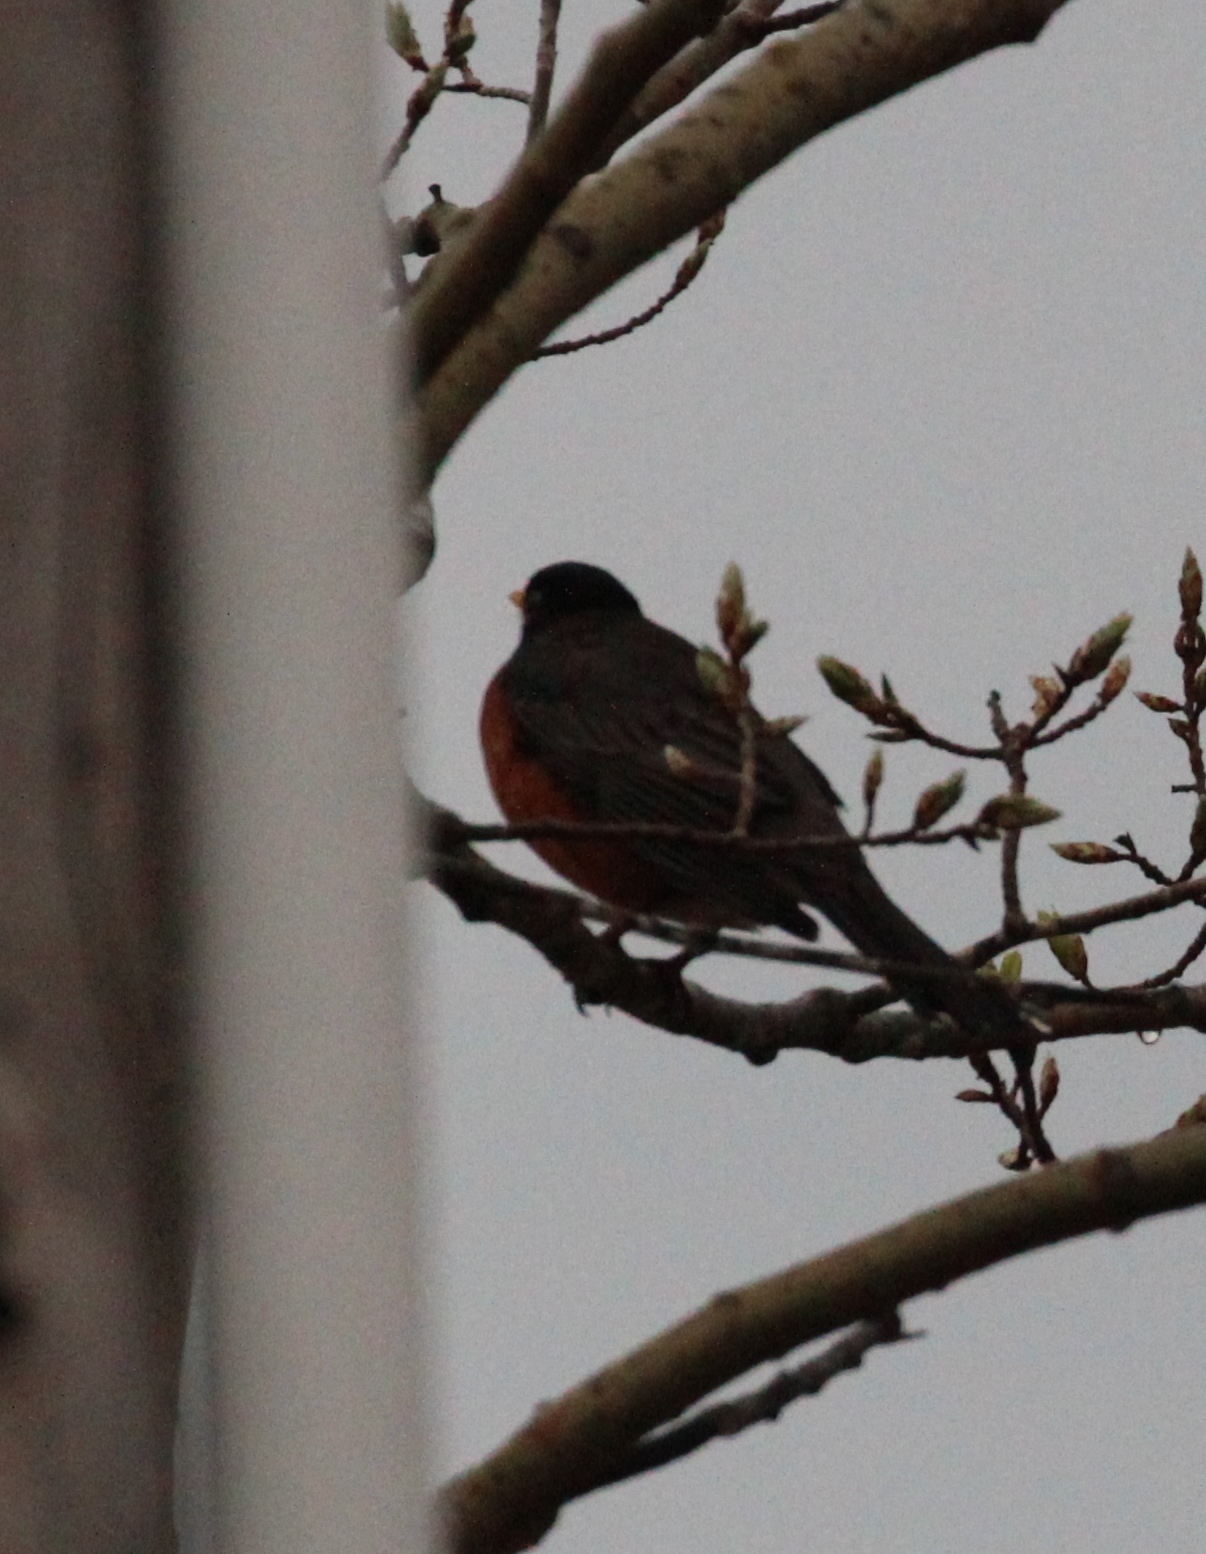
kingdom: Animalia
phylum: Chordata
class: Aves
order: Passeriformes
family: Turdidae
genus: Turdus
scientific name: Turdus migratorius
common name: American robin
